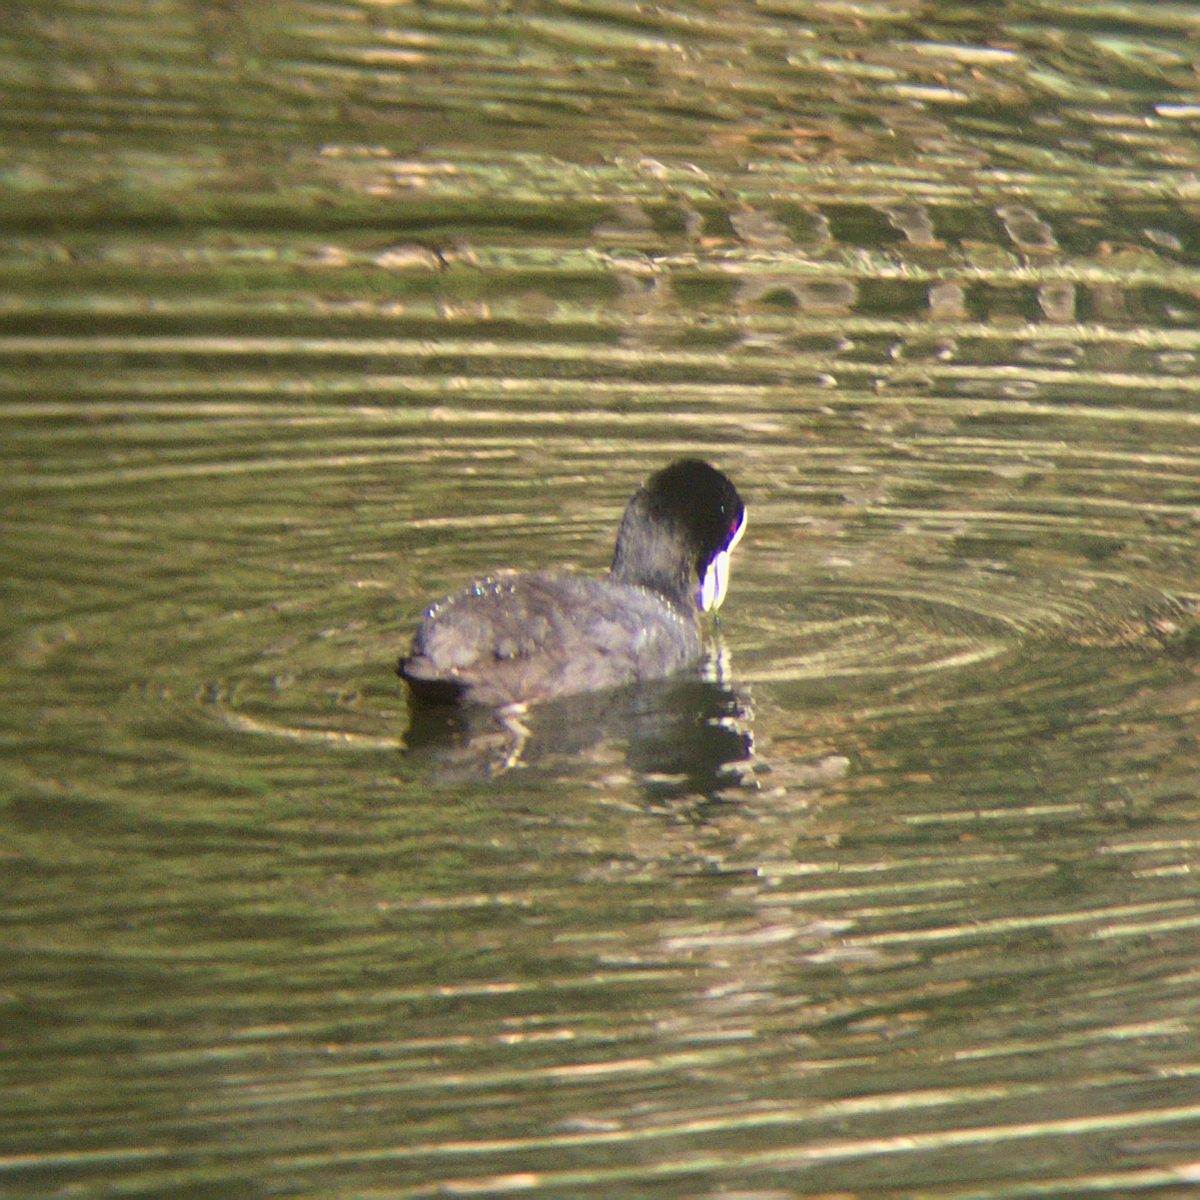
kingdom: Animalia
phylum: Chordata
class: Aves
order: Gruiformes
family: Rallidae
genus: Fulica
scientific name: Fulica atra
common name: Eurasian coot
